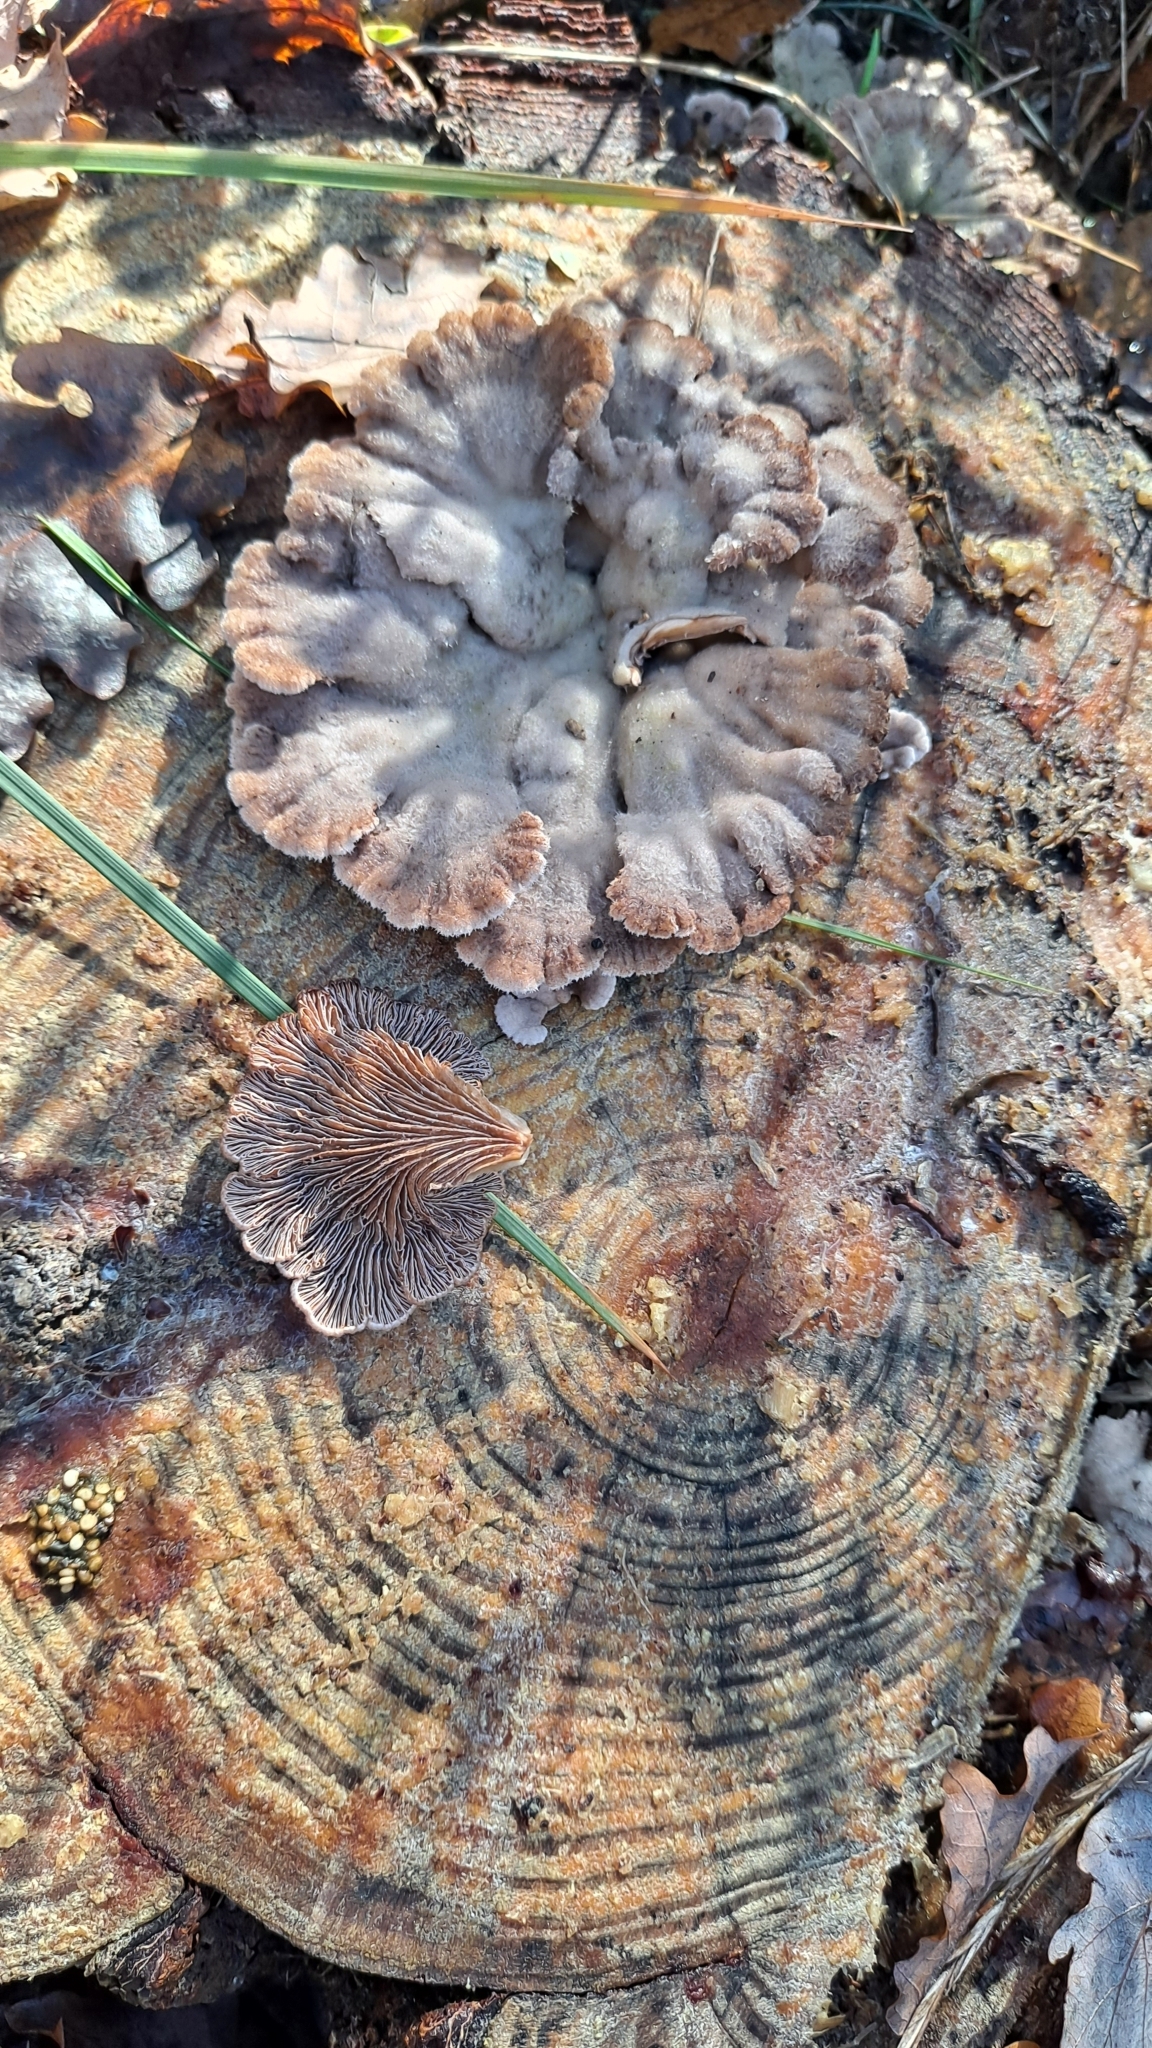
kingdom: Fungi
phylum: Basidiomycota
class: Agaricomycetes
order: Agaricales
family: Schizophyllaceae
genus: Schizophyllum
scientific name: Schizophyllum commune
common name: Common porecrust
